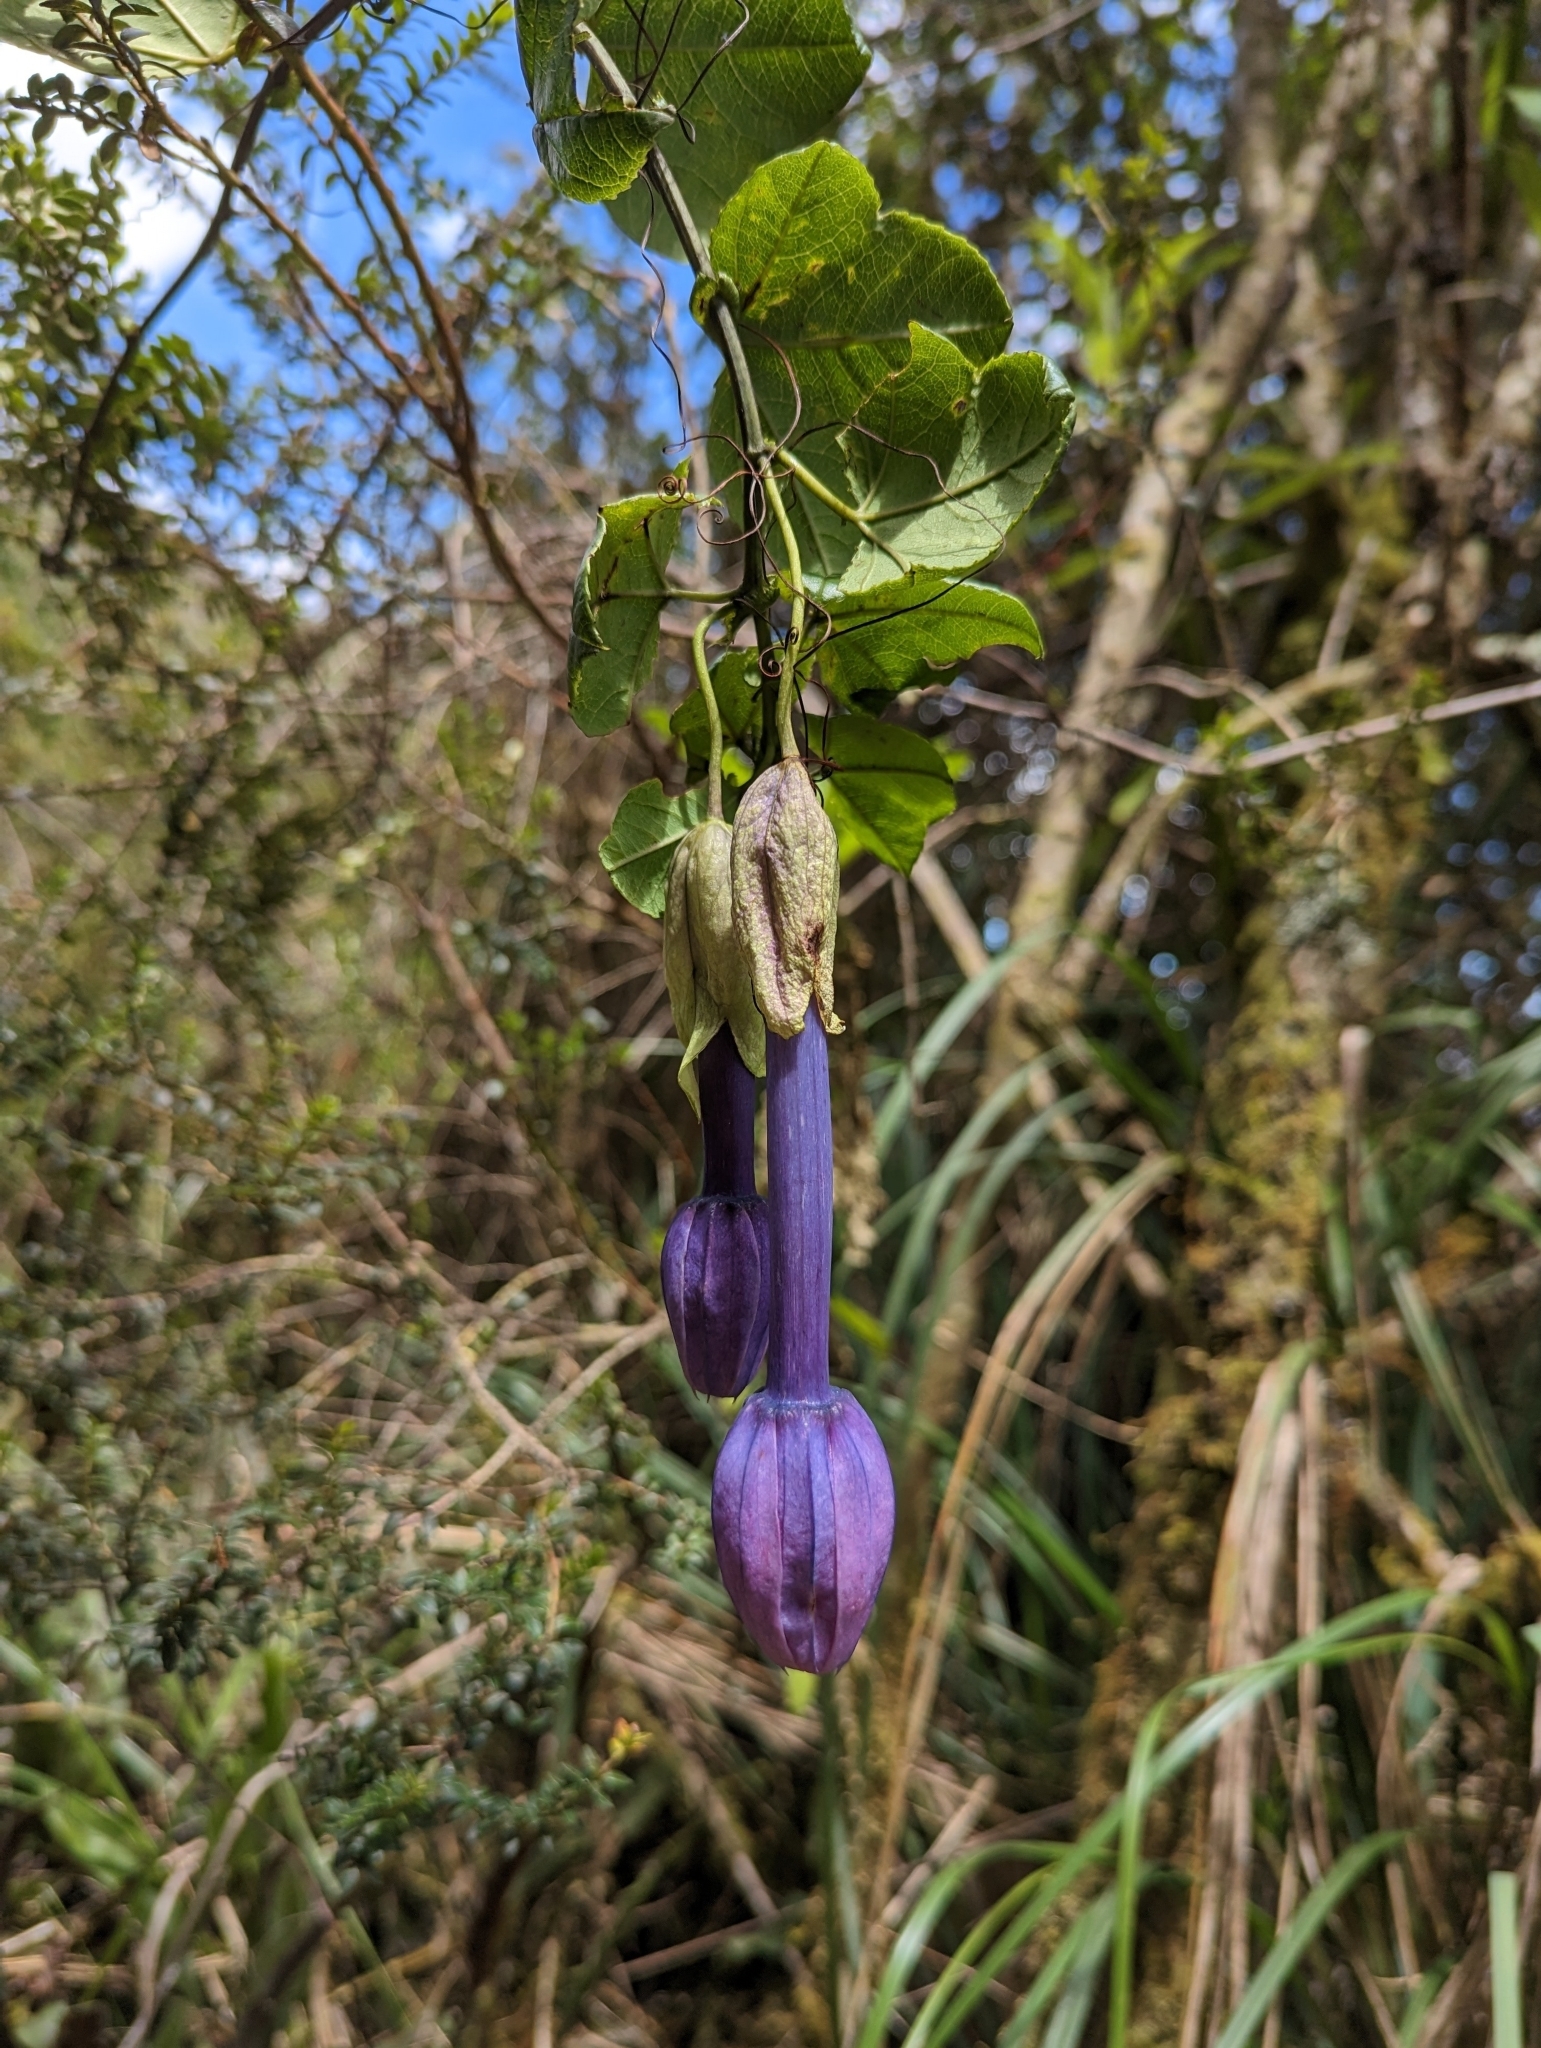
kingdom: Plantae
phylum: Tracheophyta
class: Magnoliopsida
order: Malpighiales
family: Passifloraceae
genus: Passiflora
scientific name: Passiflora cumbalensis
